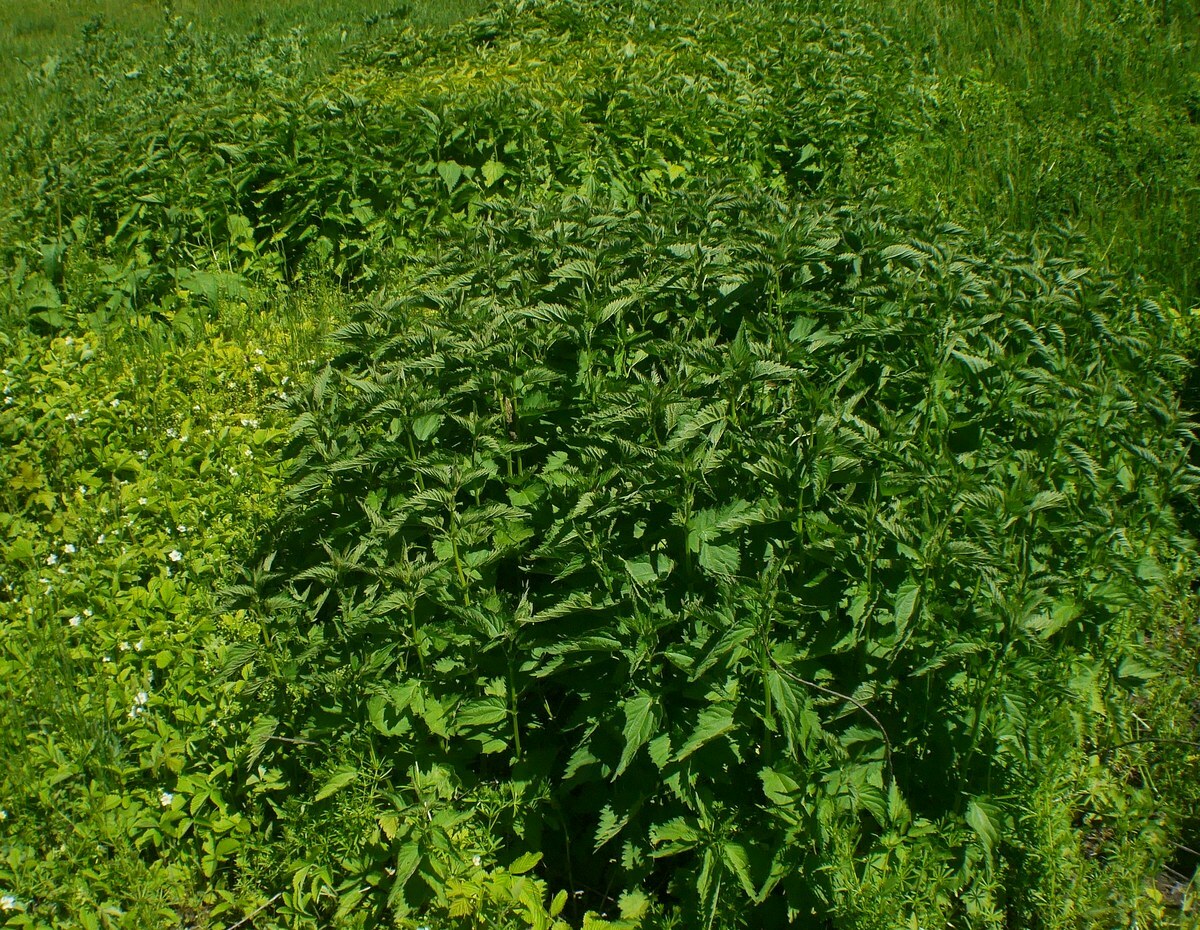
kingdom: Plantae
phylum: Tracheophyta
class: Magnoliopsida
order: Rosales
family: Urticaceae
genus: Urtica
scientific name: Urtica dioica
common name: Common nettle
